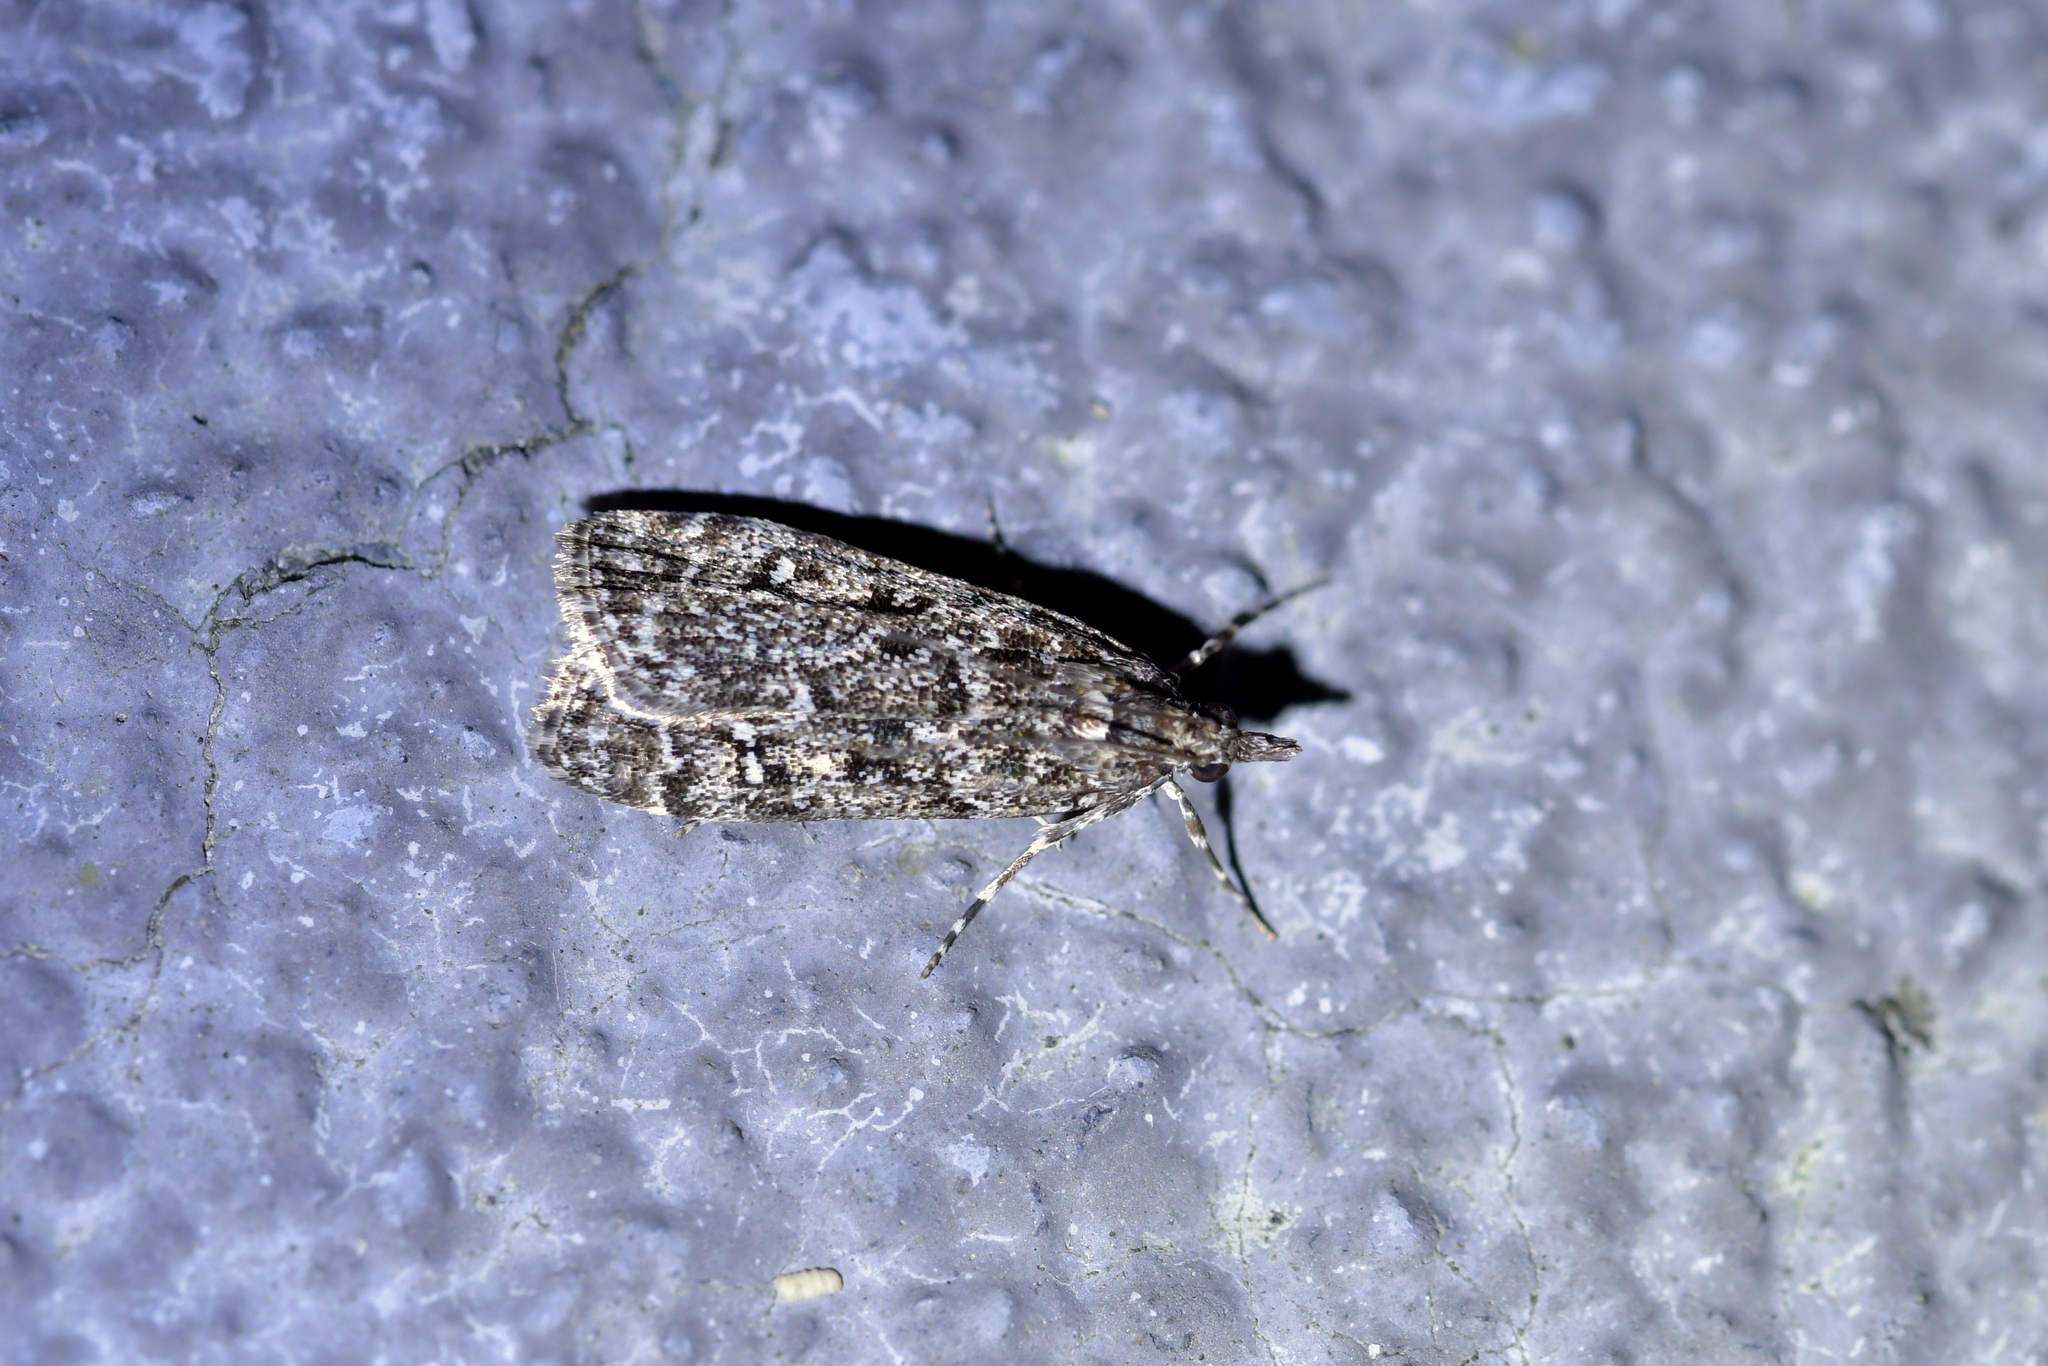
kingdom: Animalia
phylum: Arthropoda
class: Insecta
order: Lepidoptera
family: Crambidae
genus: Eudonia
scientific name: Eudonia philerga
